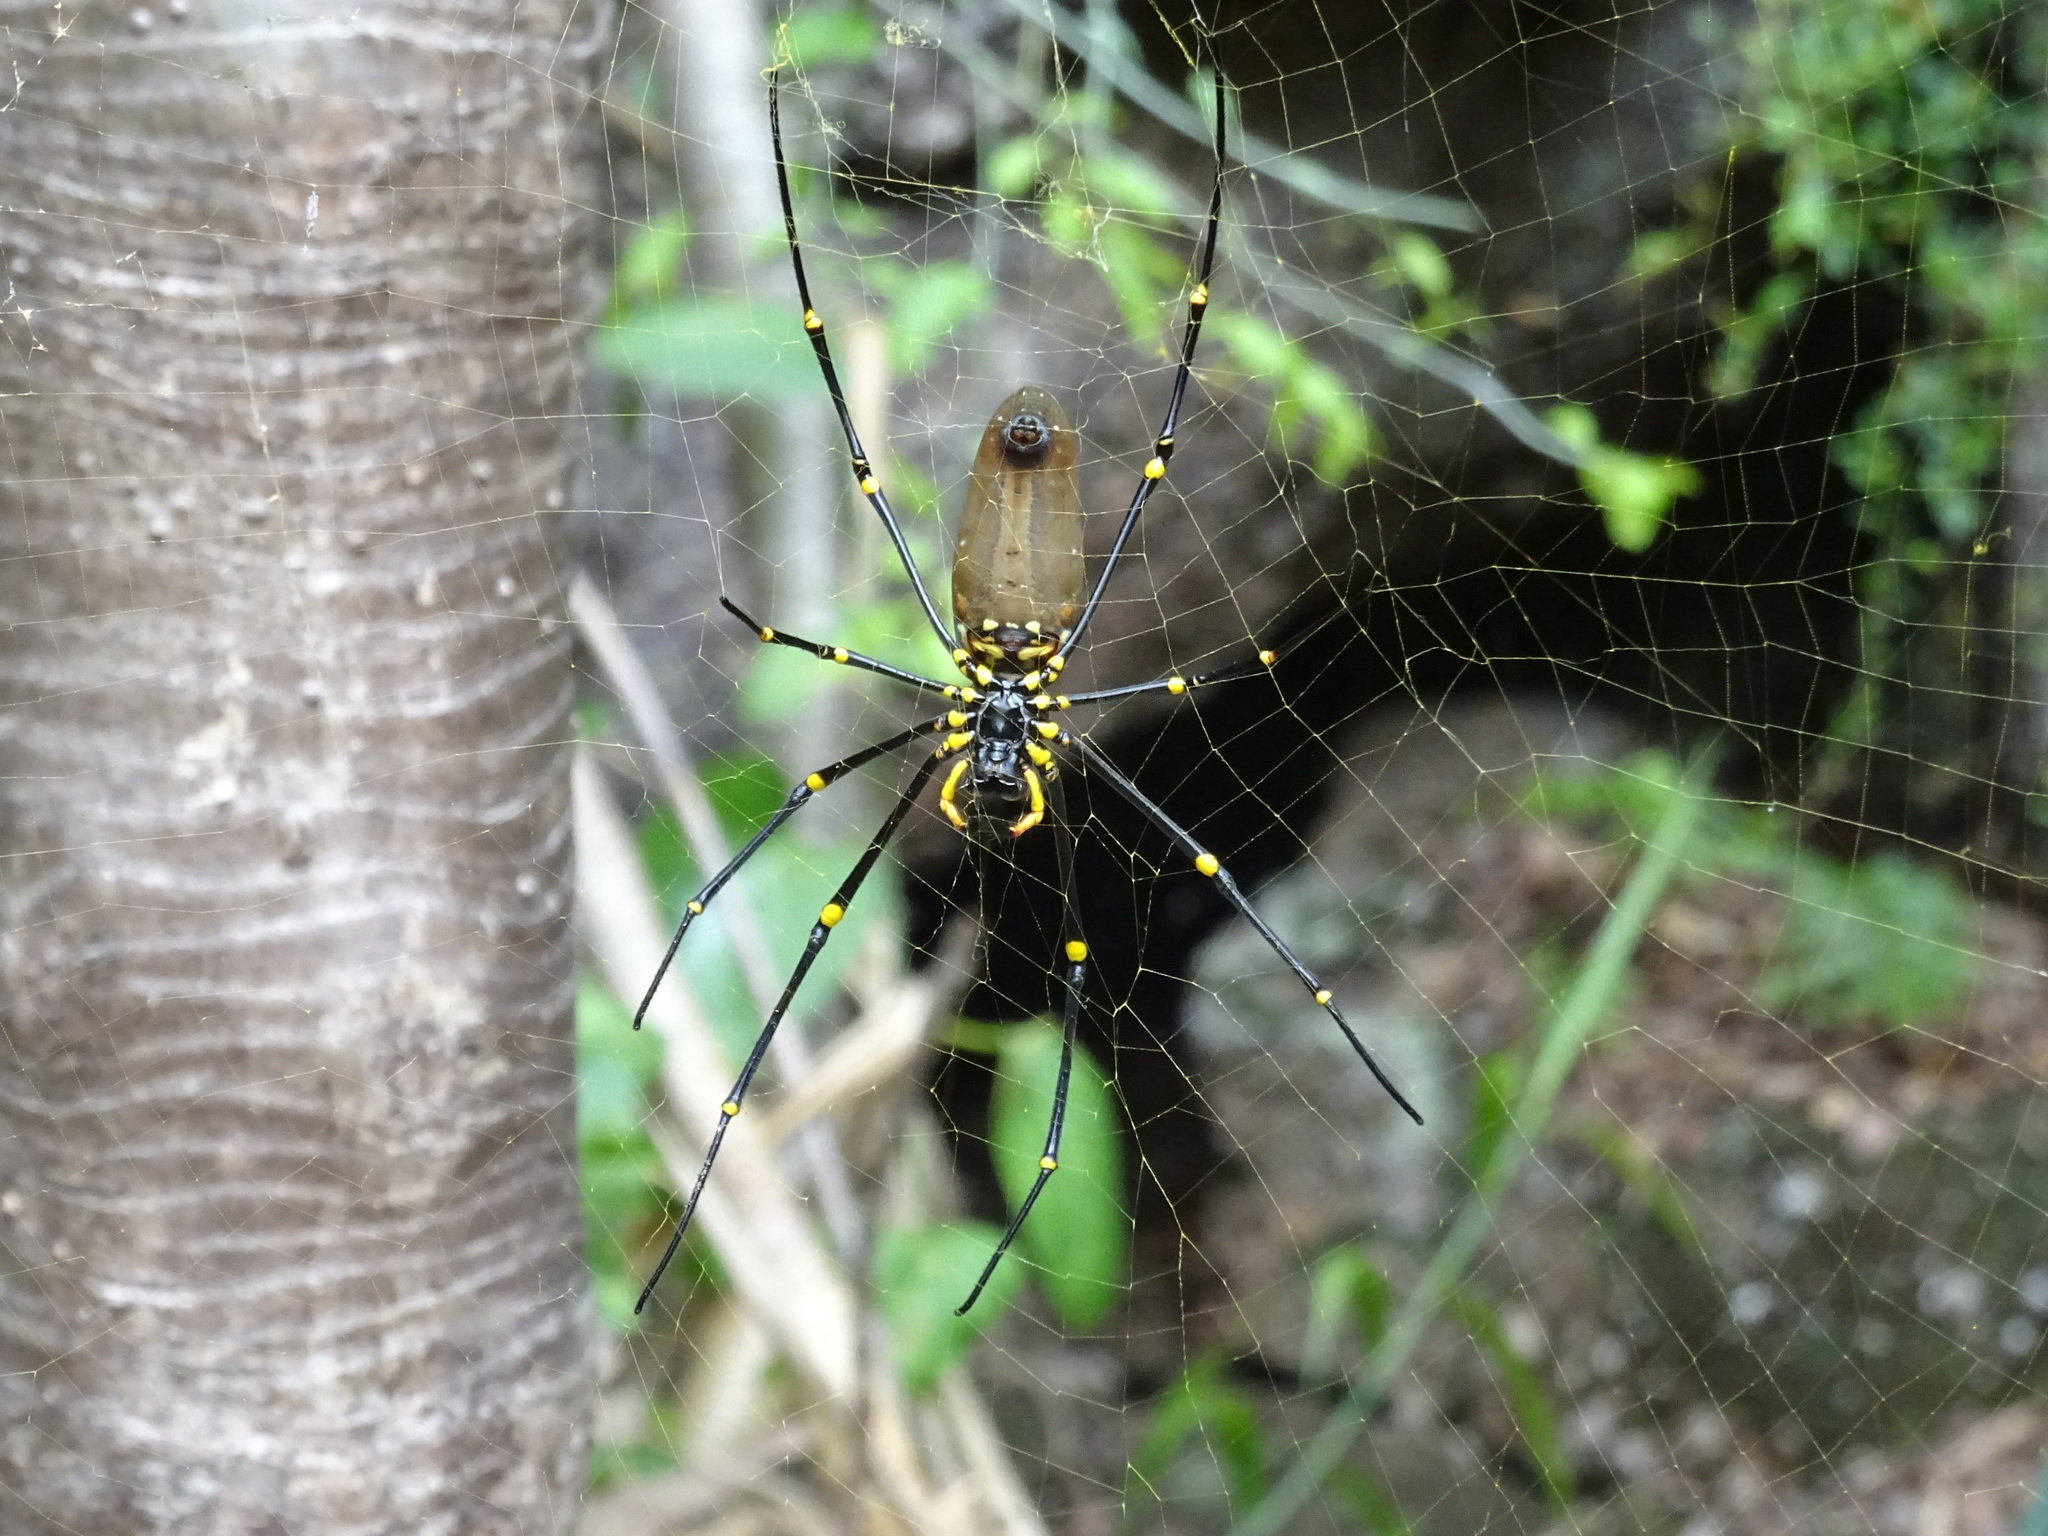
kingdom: Animalia
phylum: Arthropoda
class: Arachnida
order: Araneae
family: Araneidae
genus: Nephila
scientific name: Nephila pilipes
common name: Giant golden orb weaver
